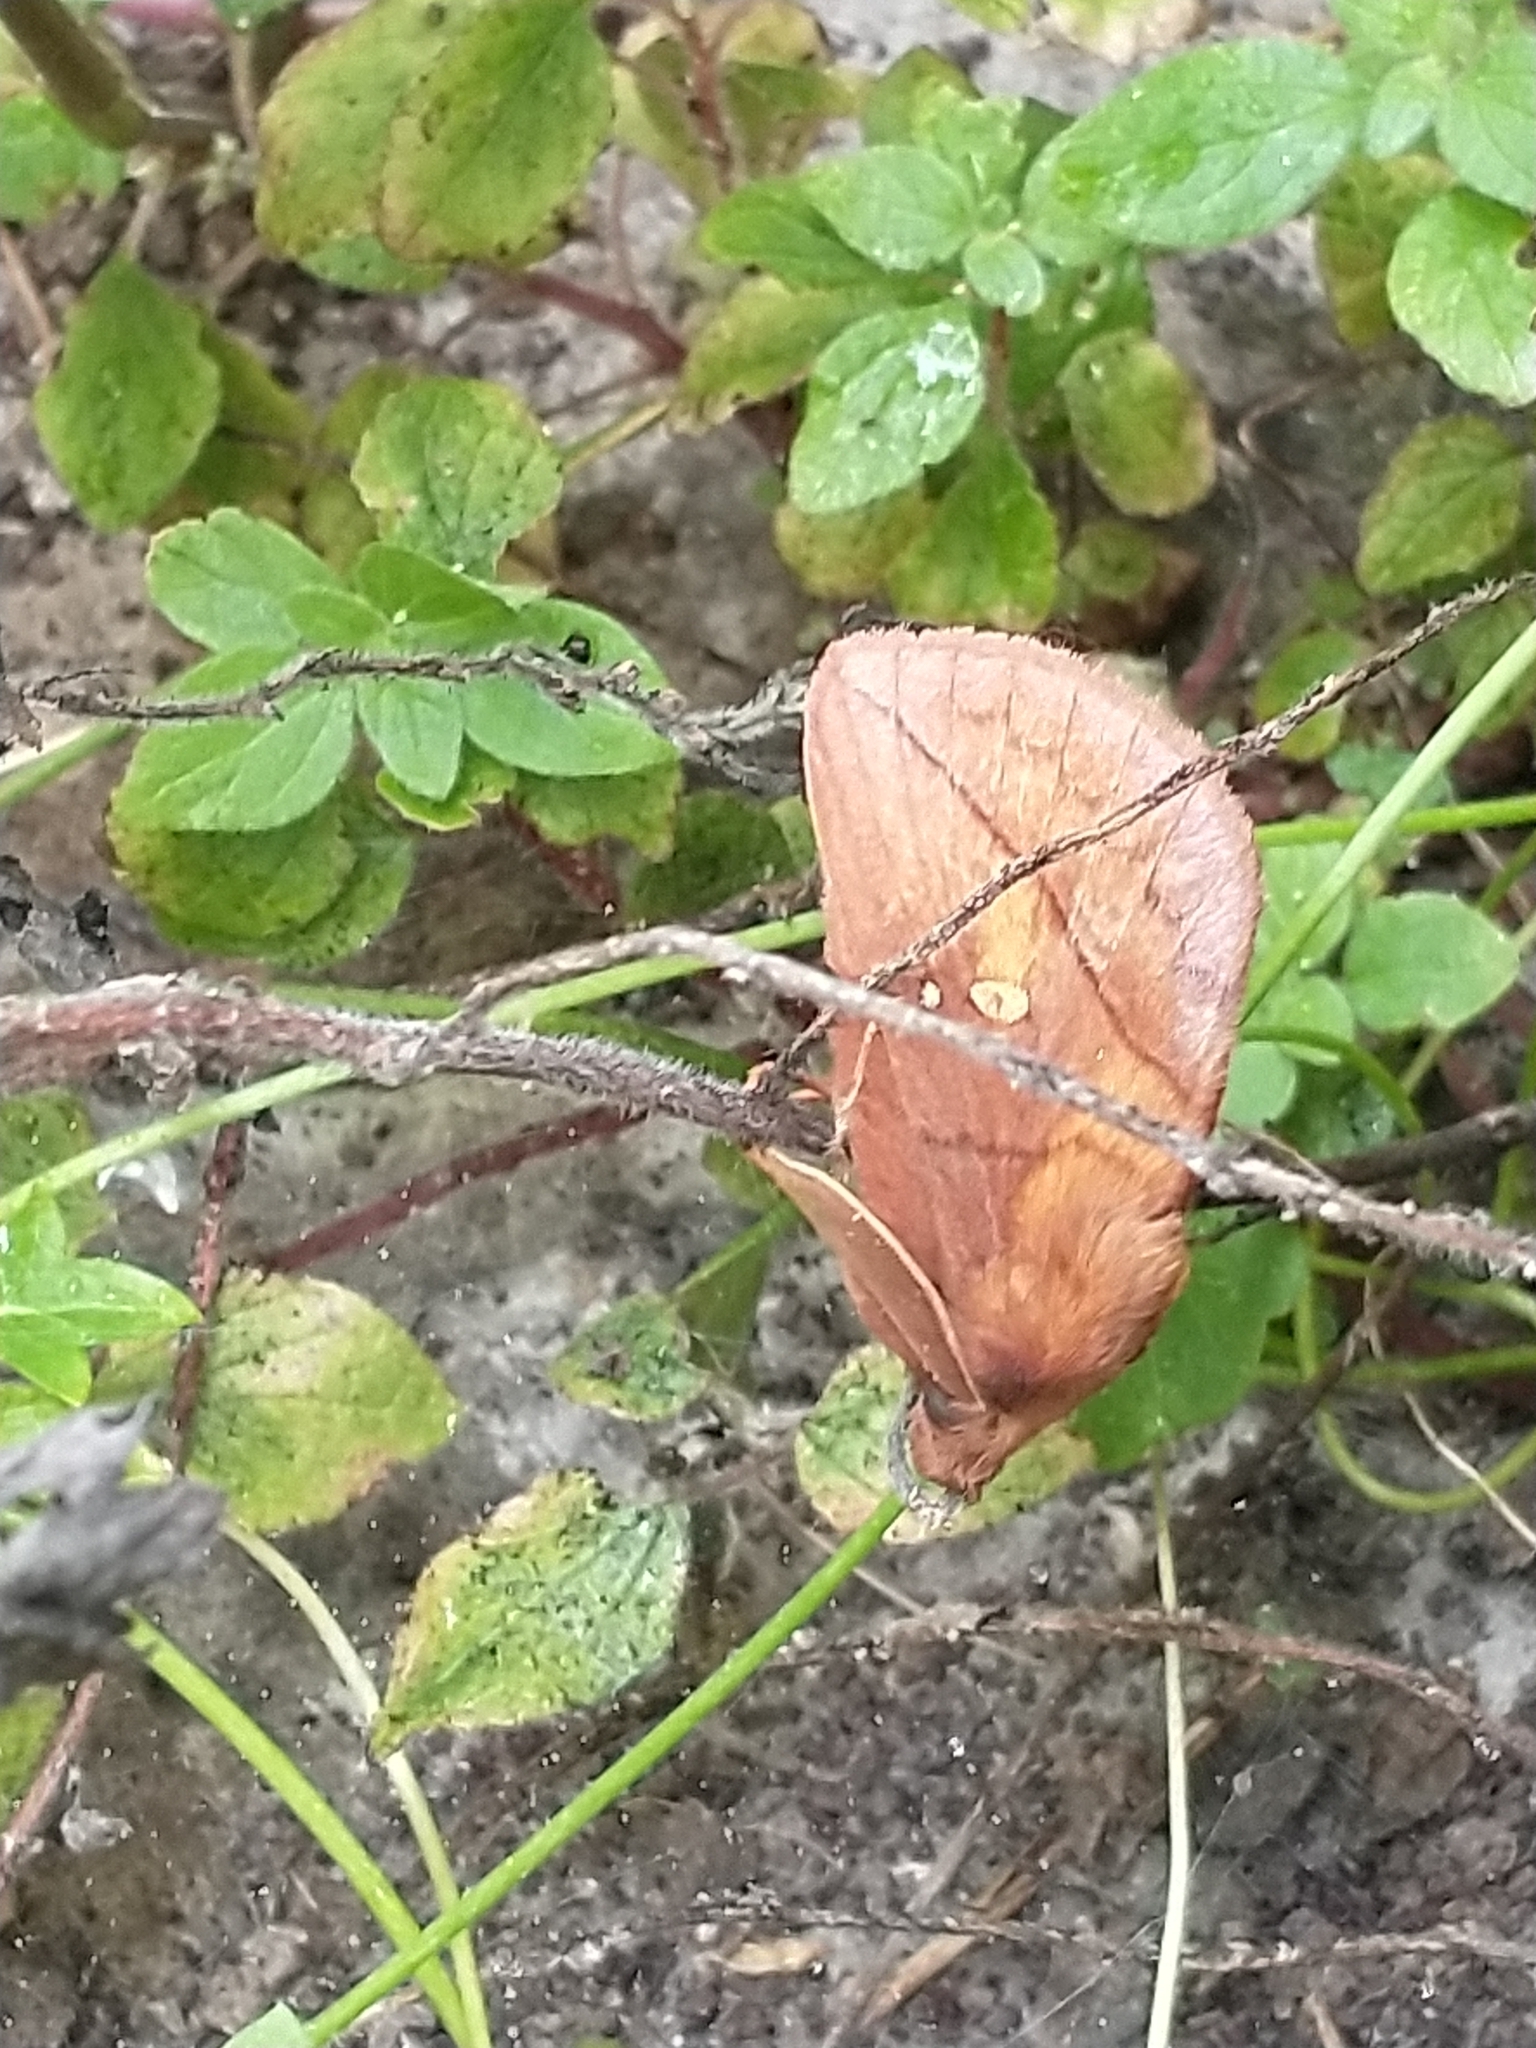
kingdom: Animalia
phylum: Arthropoda
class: Insecta
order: Lepidoptera
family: Lasiocampidae
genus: Euthrix
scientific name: Euthrix potatoria
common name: Drinker
